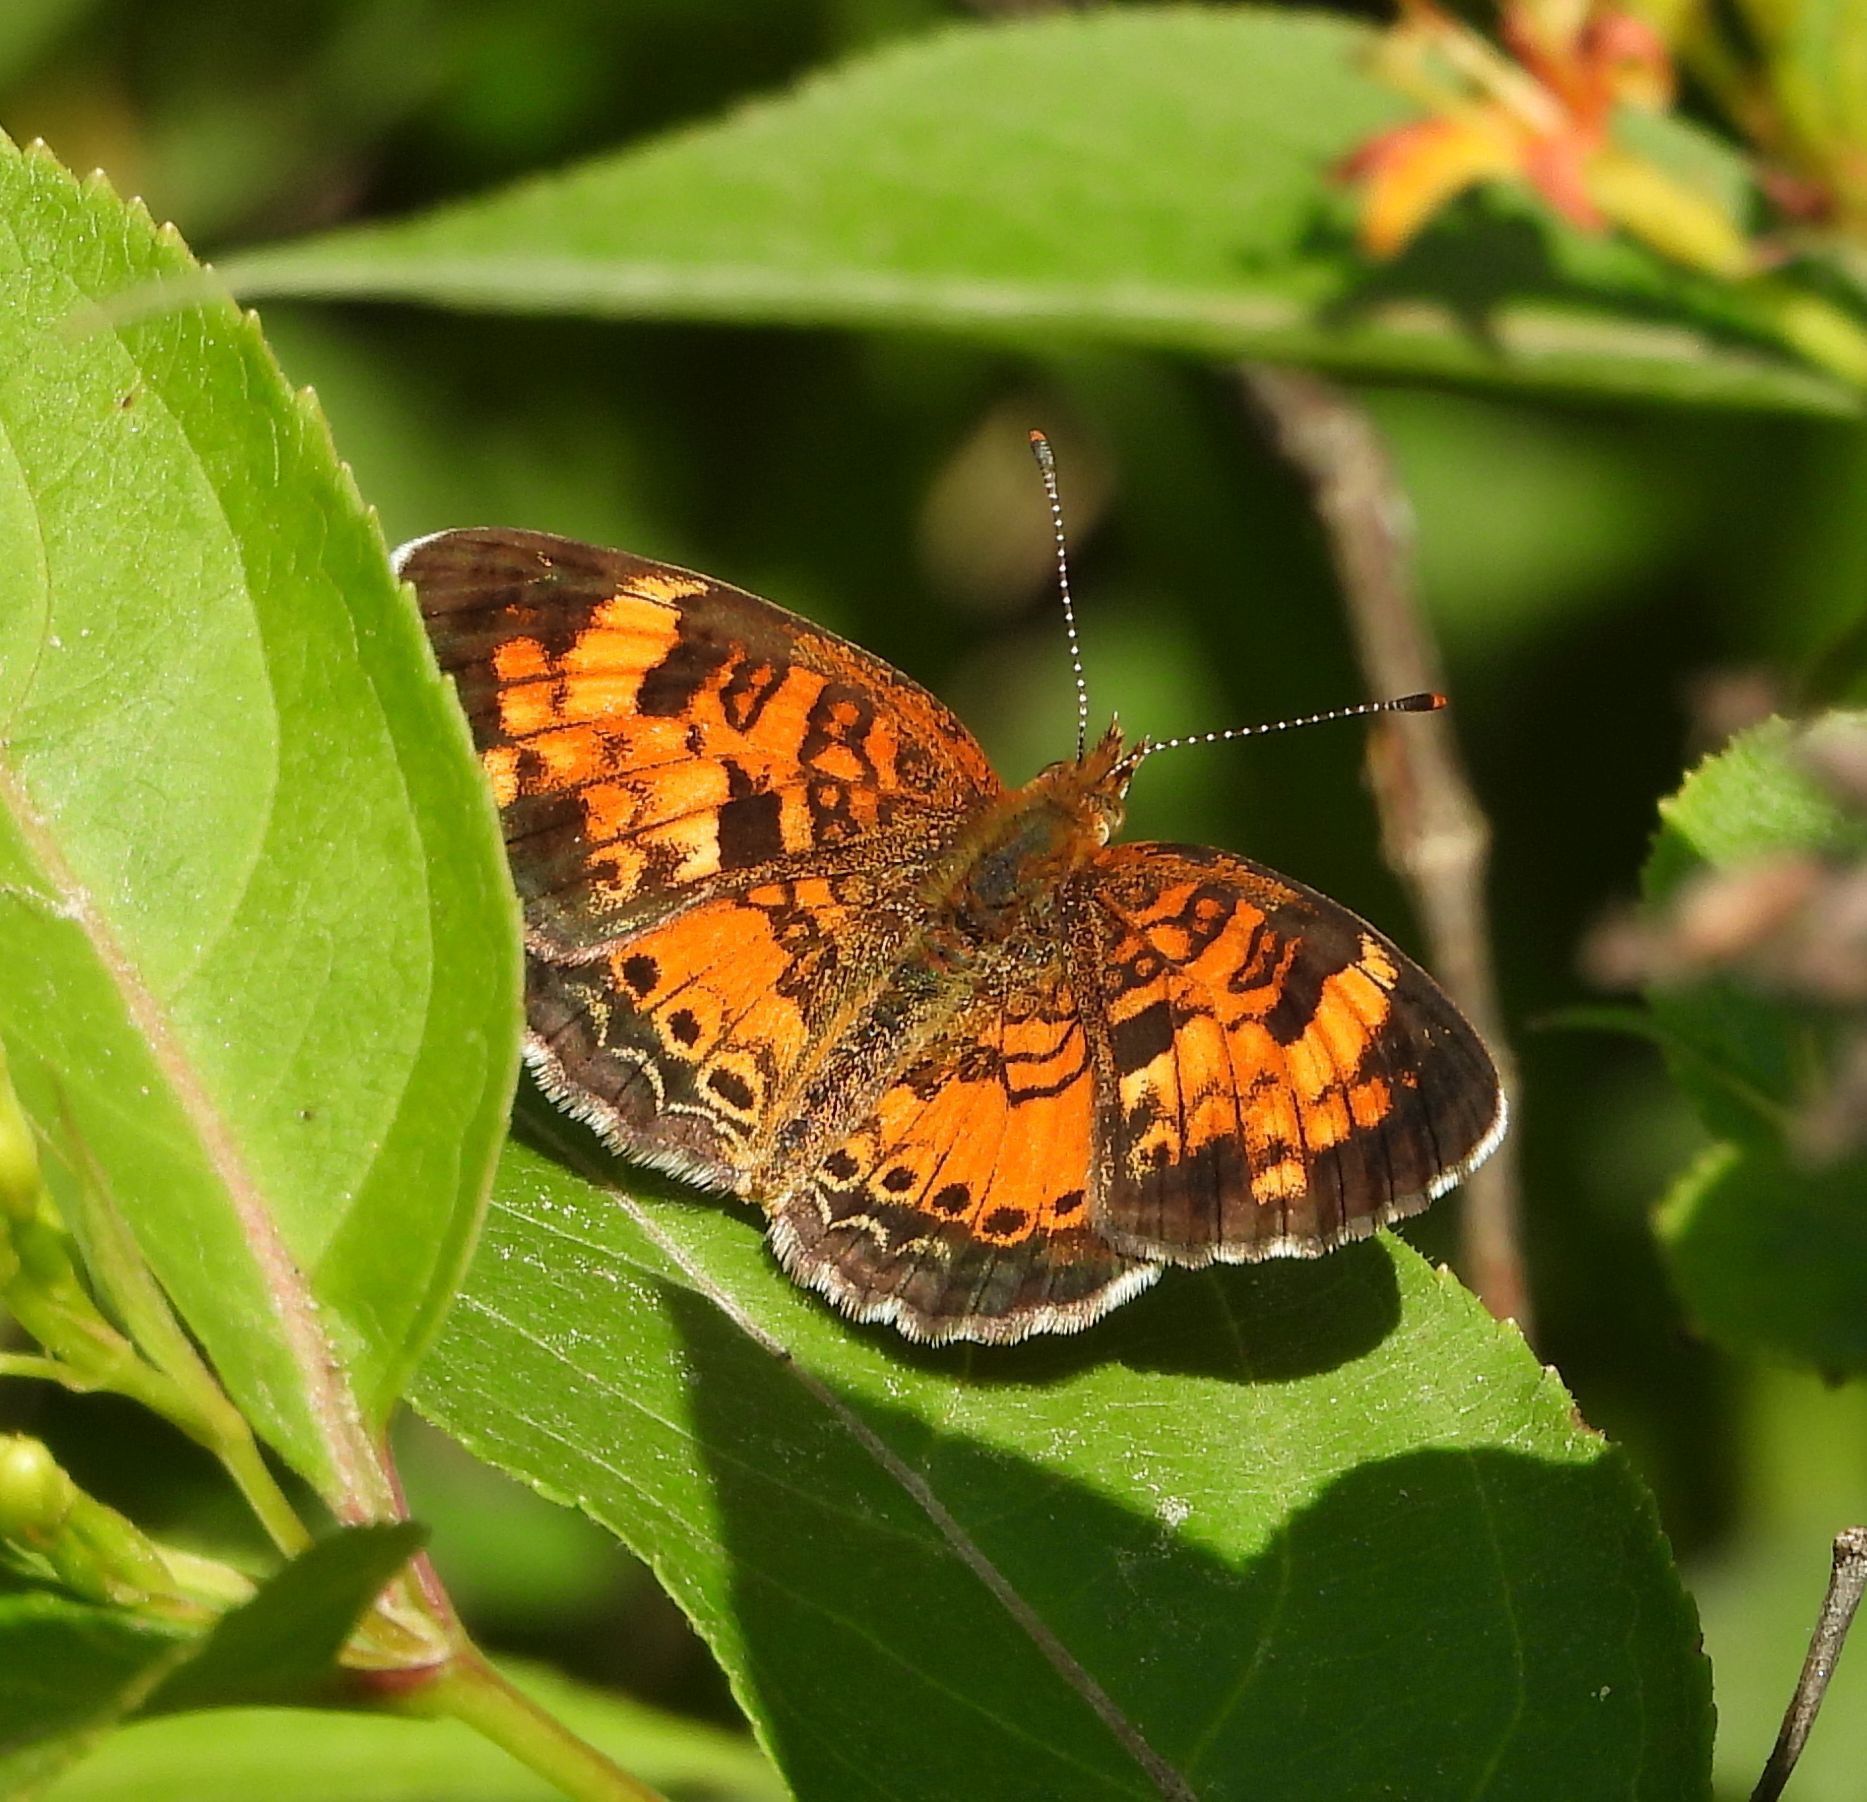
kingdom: Animalia
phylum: Arthropoda
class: Insecta
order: Lepidoptera
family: Nymphalidae
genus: Phyciodes
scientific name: Phyciodes tharos
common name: Pearl crescent
